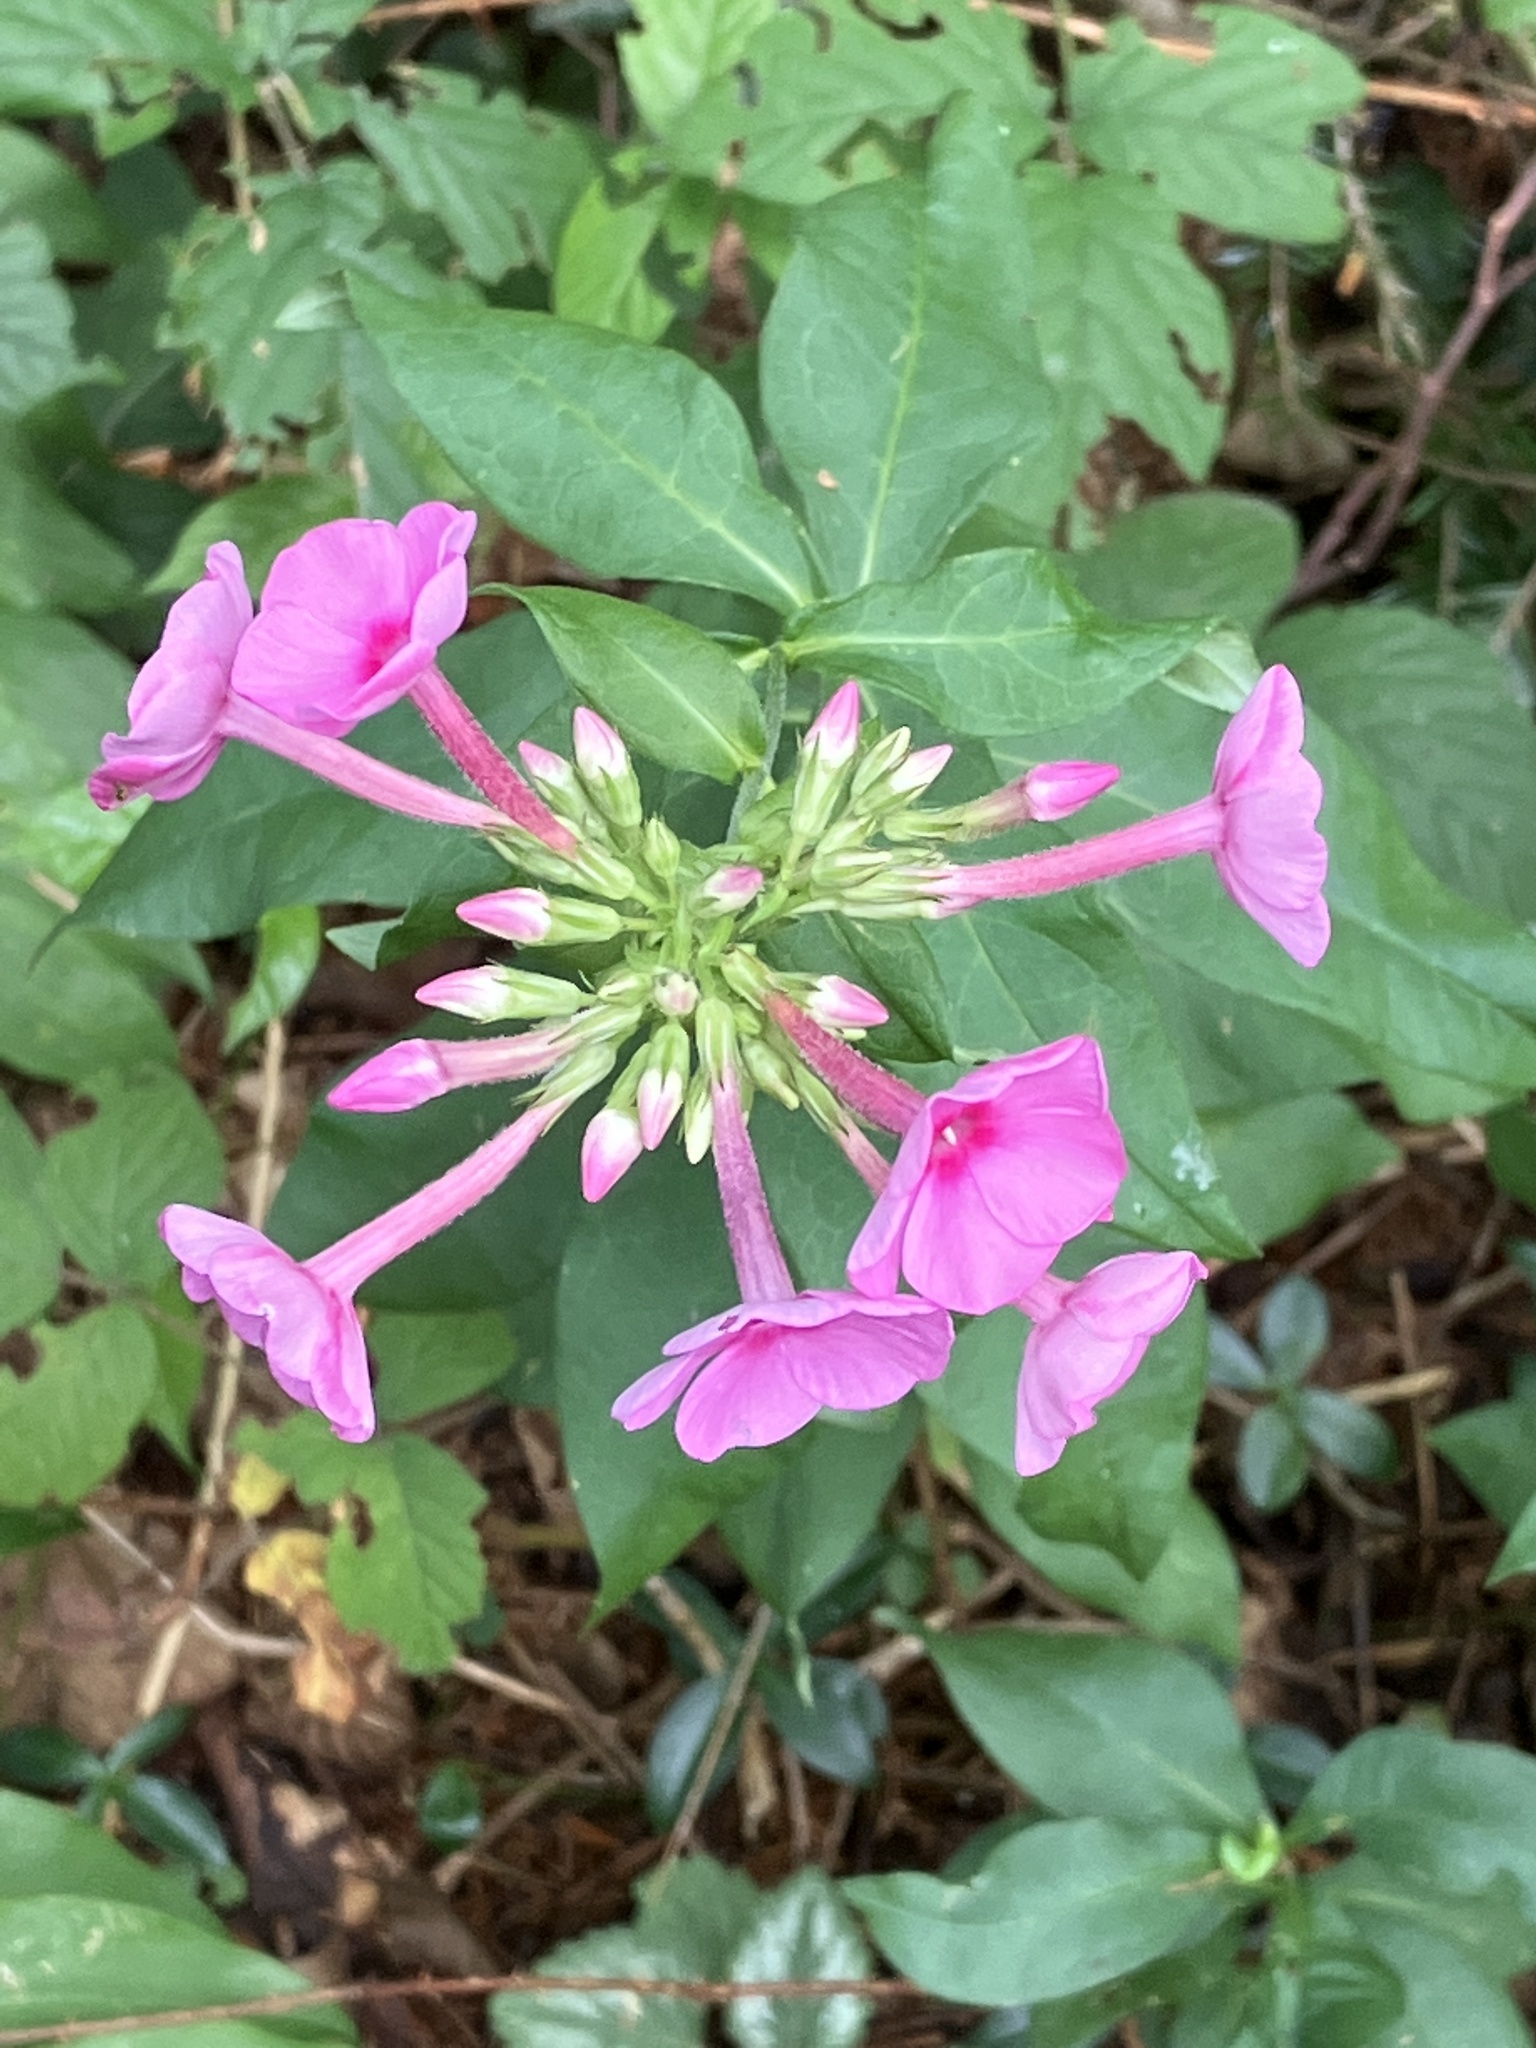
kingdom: Plantae
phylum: Tracheophyta
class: Magnoliopsida
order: Ericales
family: Polemoniaceae
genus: Phlox
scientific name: Phlox paniculata
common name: Fall phlox
